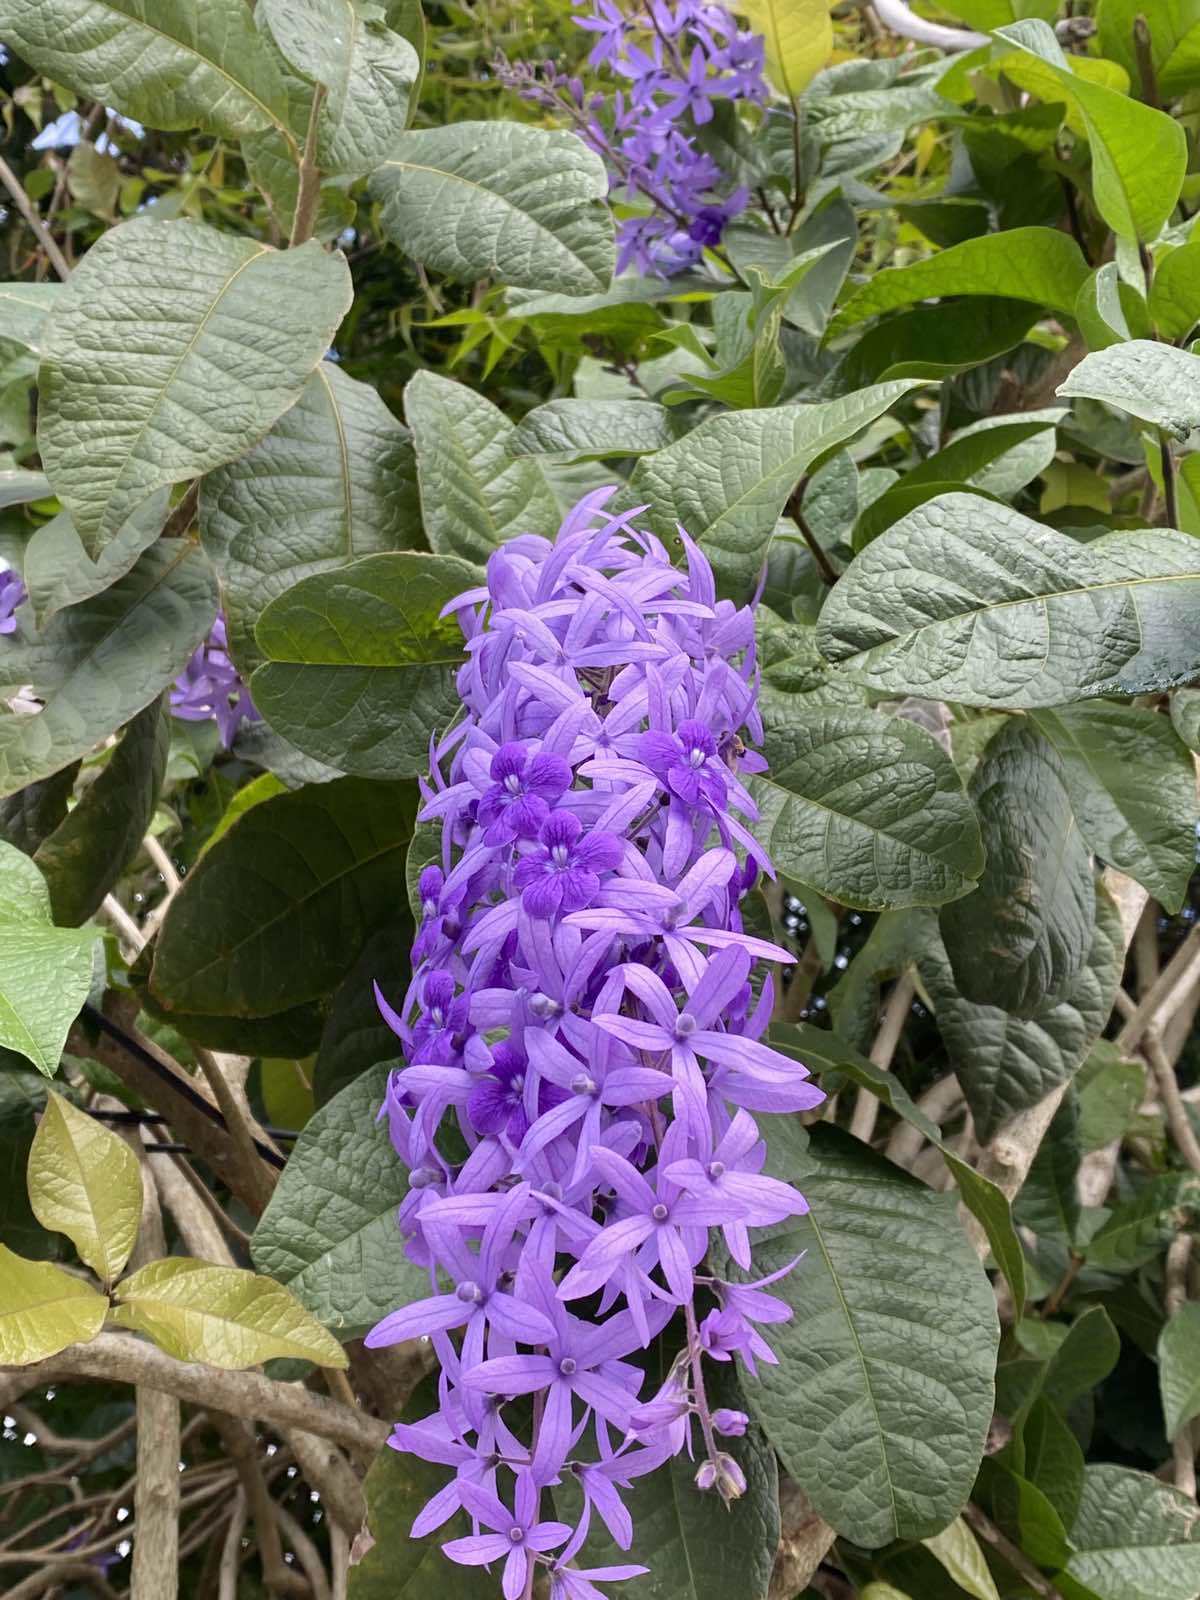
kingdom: Plantae
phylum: Tracheophyta
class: Magnoliopsida
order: Lamiales
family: Verbenaceae
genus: Petrea
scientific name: Petrea volubilis
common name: Queen's-wreath
